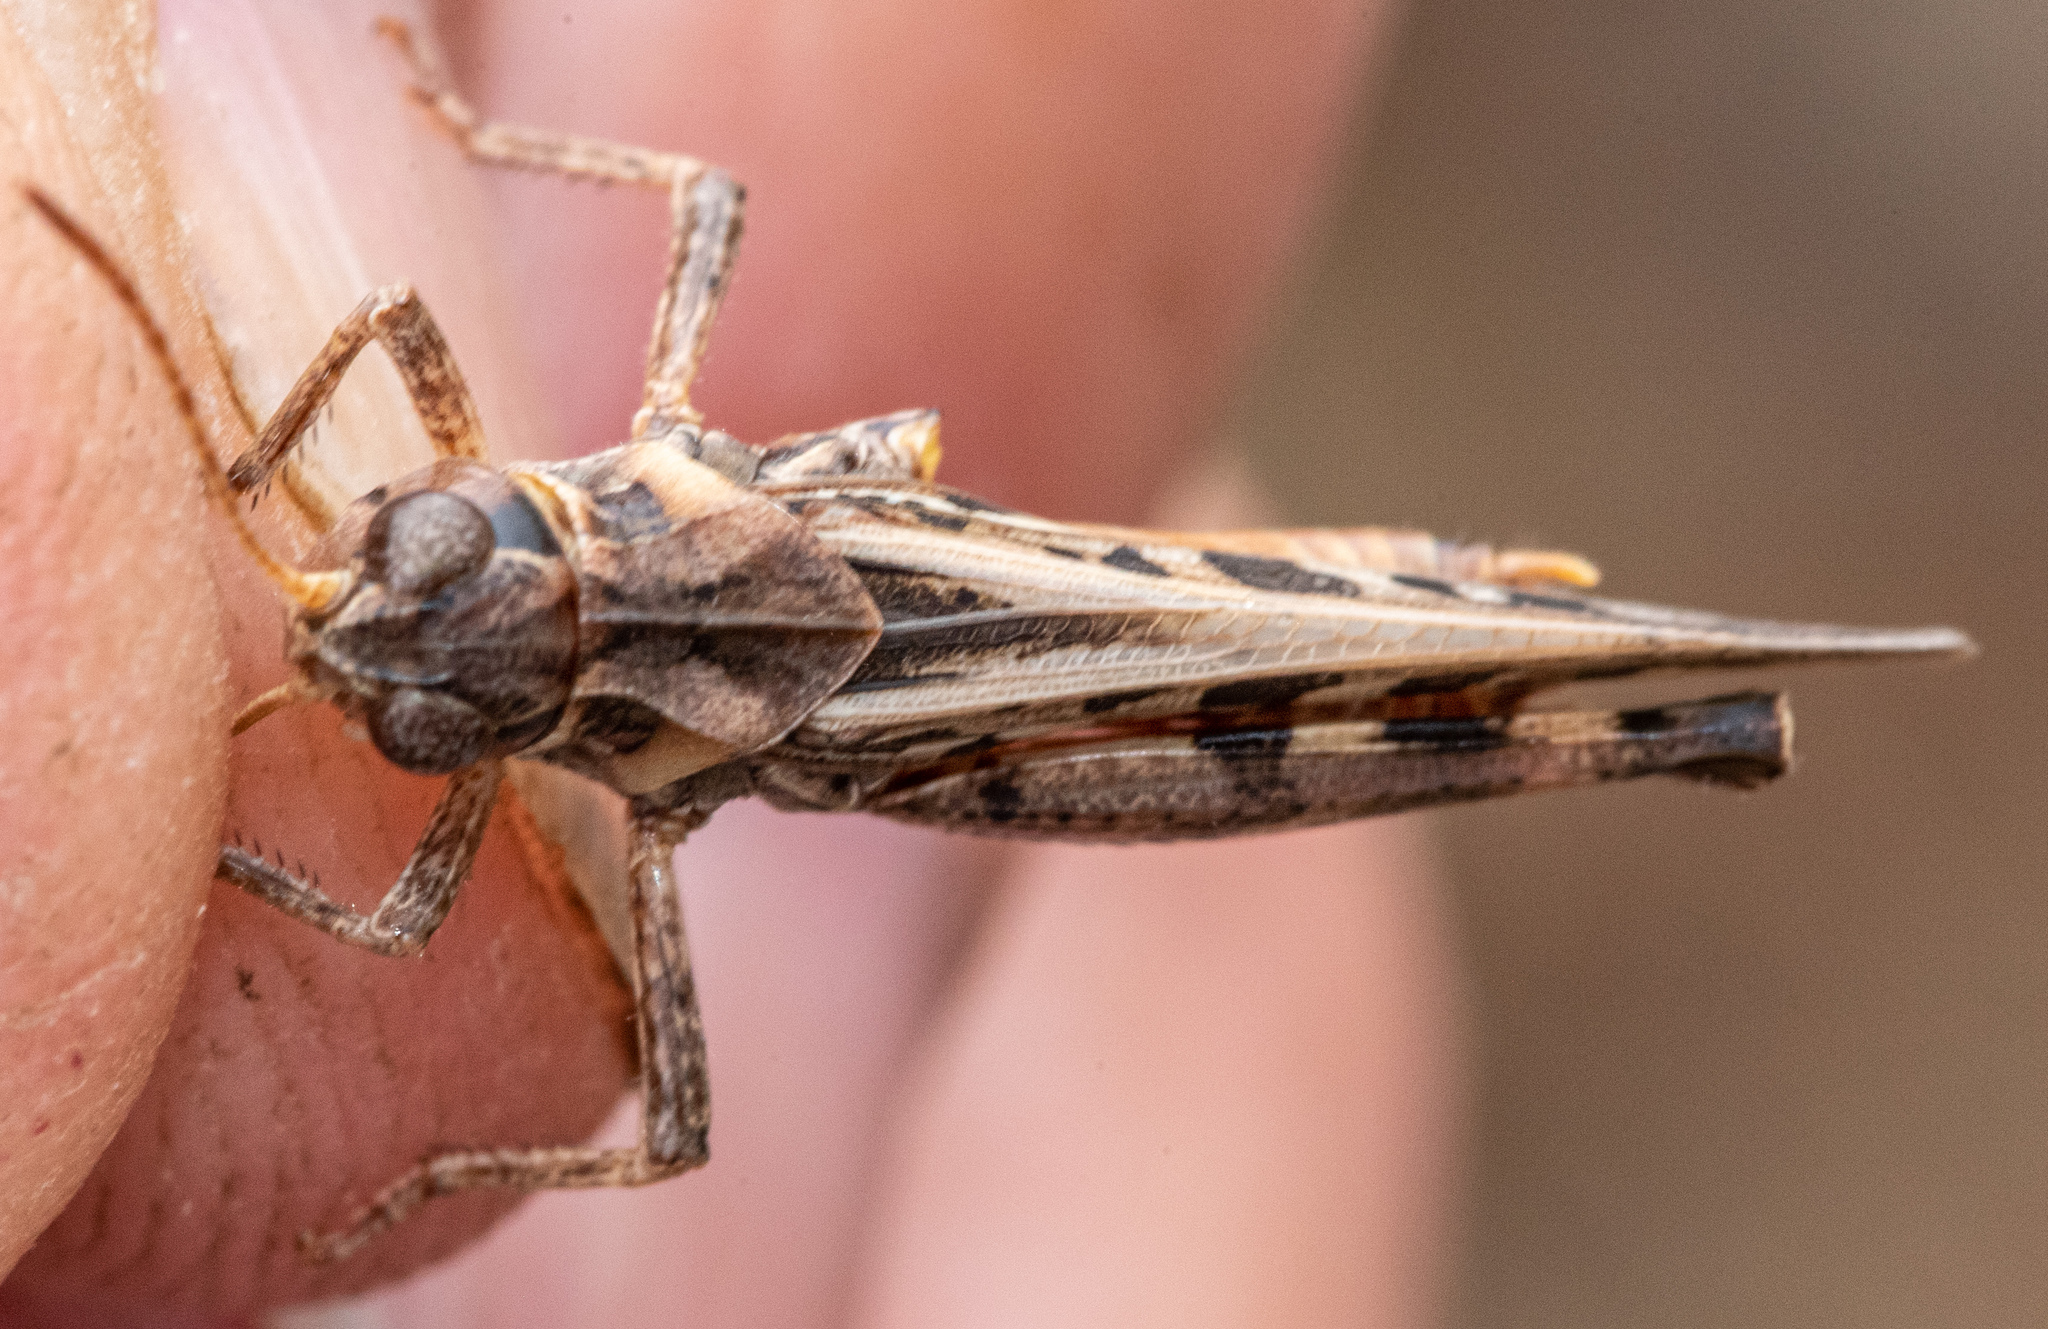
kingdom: Animalia
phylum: Arthropoda
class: Insecta
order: Orthoptera
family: Acrididae
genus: Camnula
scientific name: Camnula pellucida
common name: Clear-winged grasshopper
